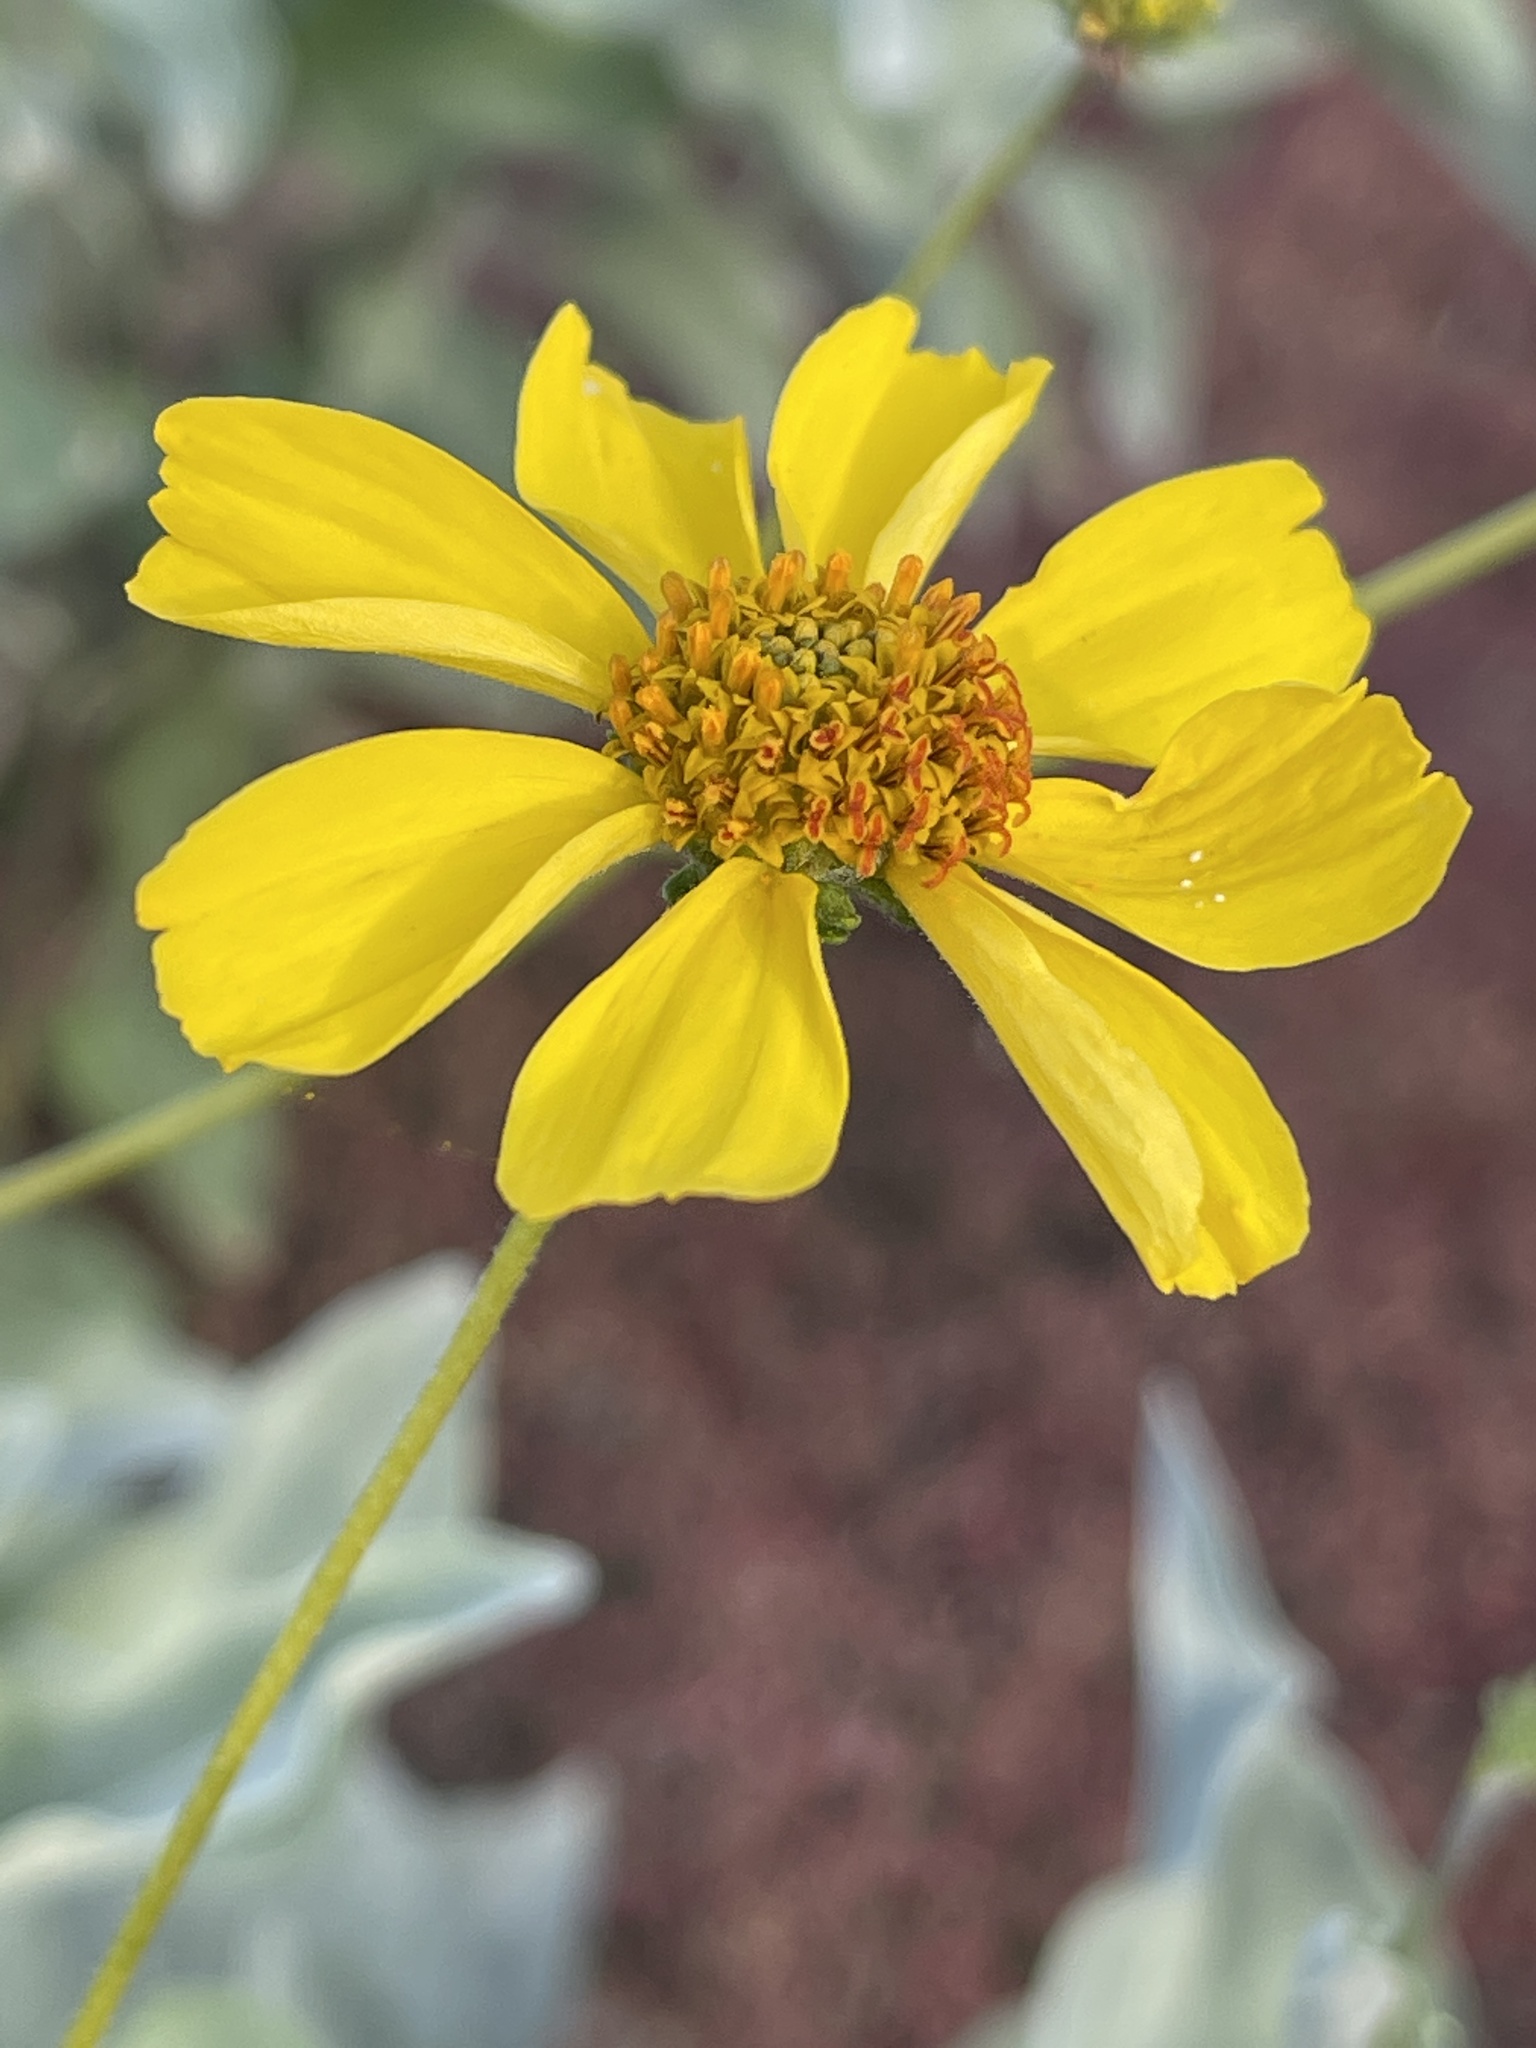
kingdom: Plantae
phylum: Tracheophyta
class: Magnoliopsida
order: Asterales
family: Asteraceae
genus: Encelia
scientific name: Encelia farinosa
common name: Brittlebush
